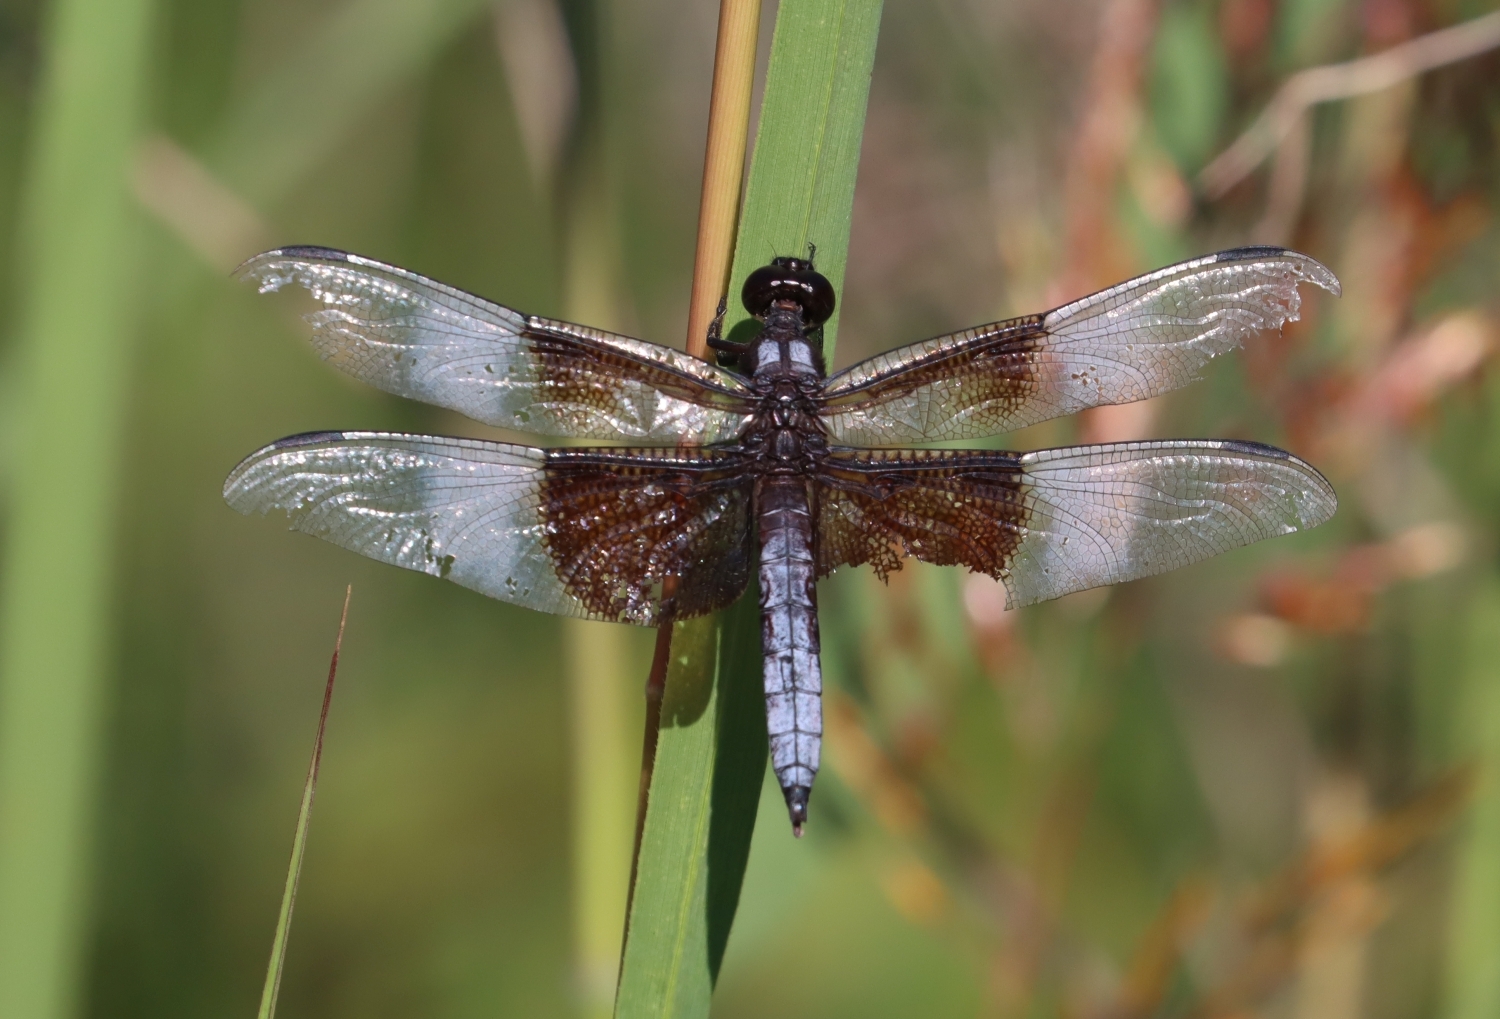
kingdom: Animalia
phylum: Arthropoda
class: Insecta
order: Odonata
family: Libellulidae
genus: Libellula
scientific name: Libellula luctuosa
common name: Widow skimmer
